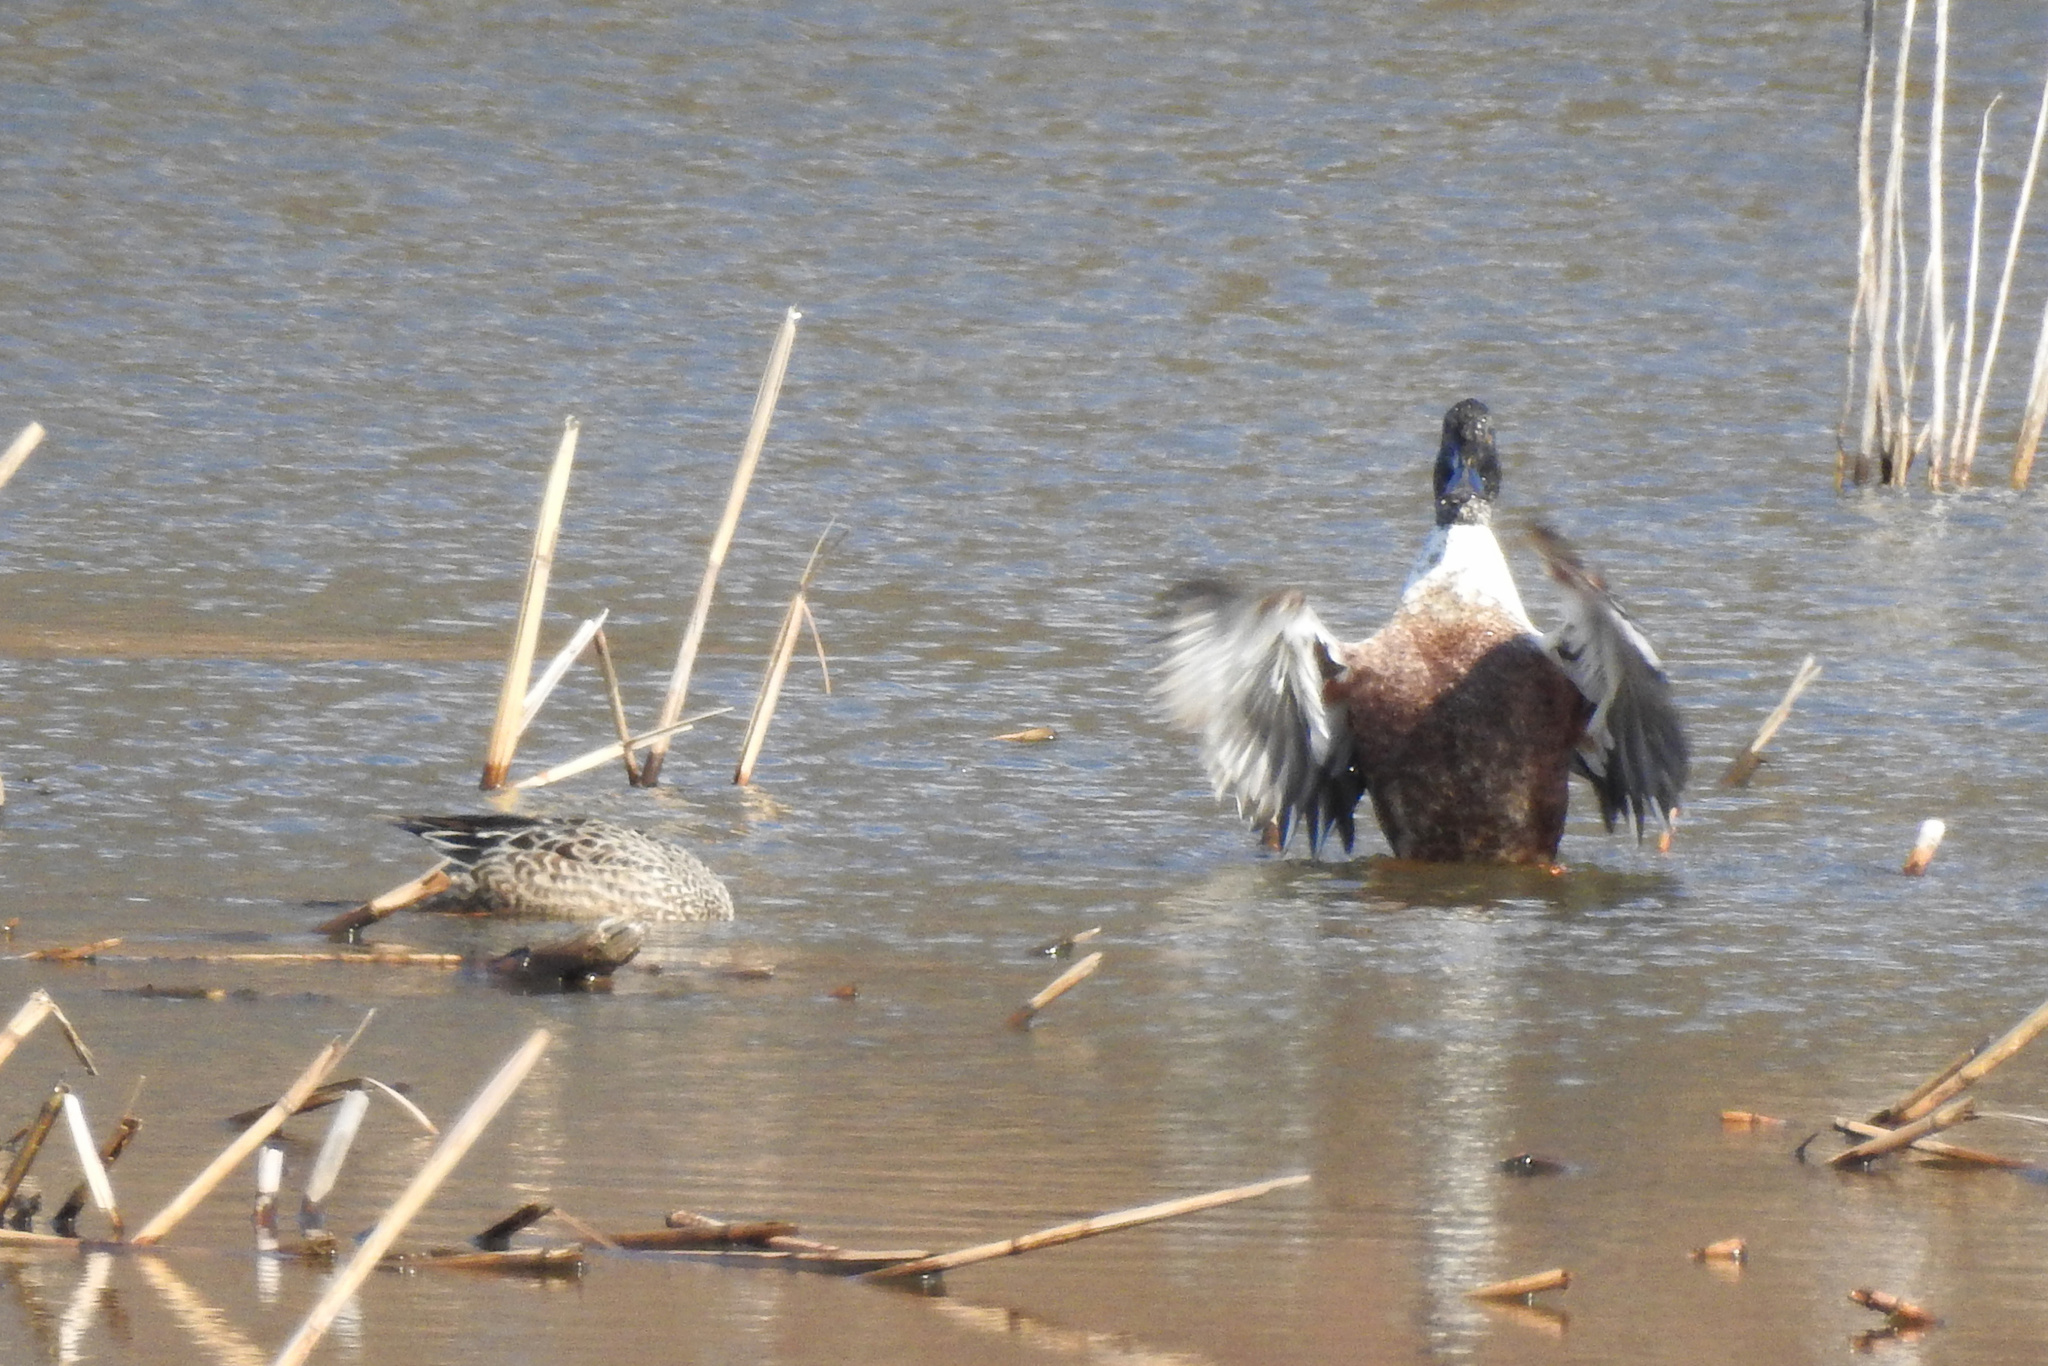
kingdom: Animalia
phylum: Chordata
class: Aves
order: Anseriformes
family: Anatidae
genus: Spatula
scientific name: Spatula clypeata
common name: Northern shoveler
